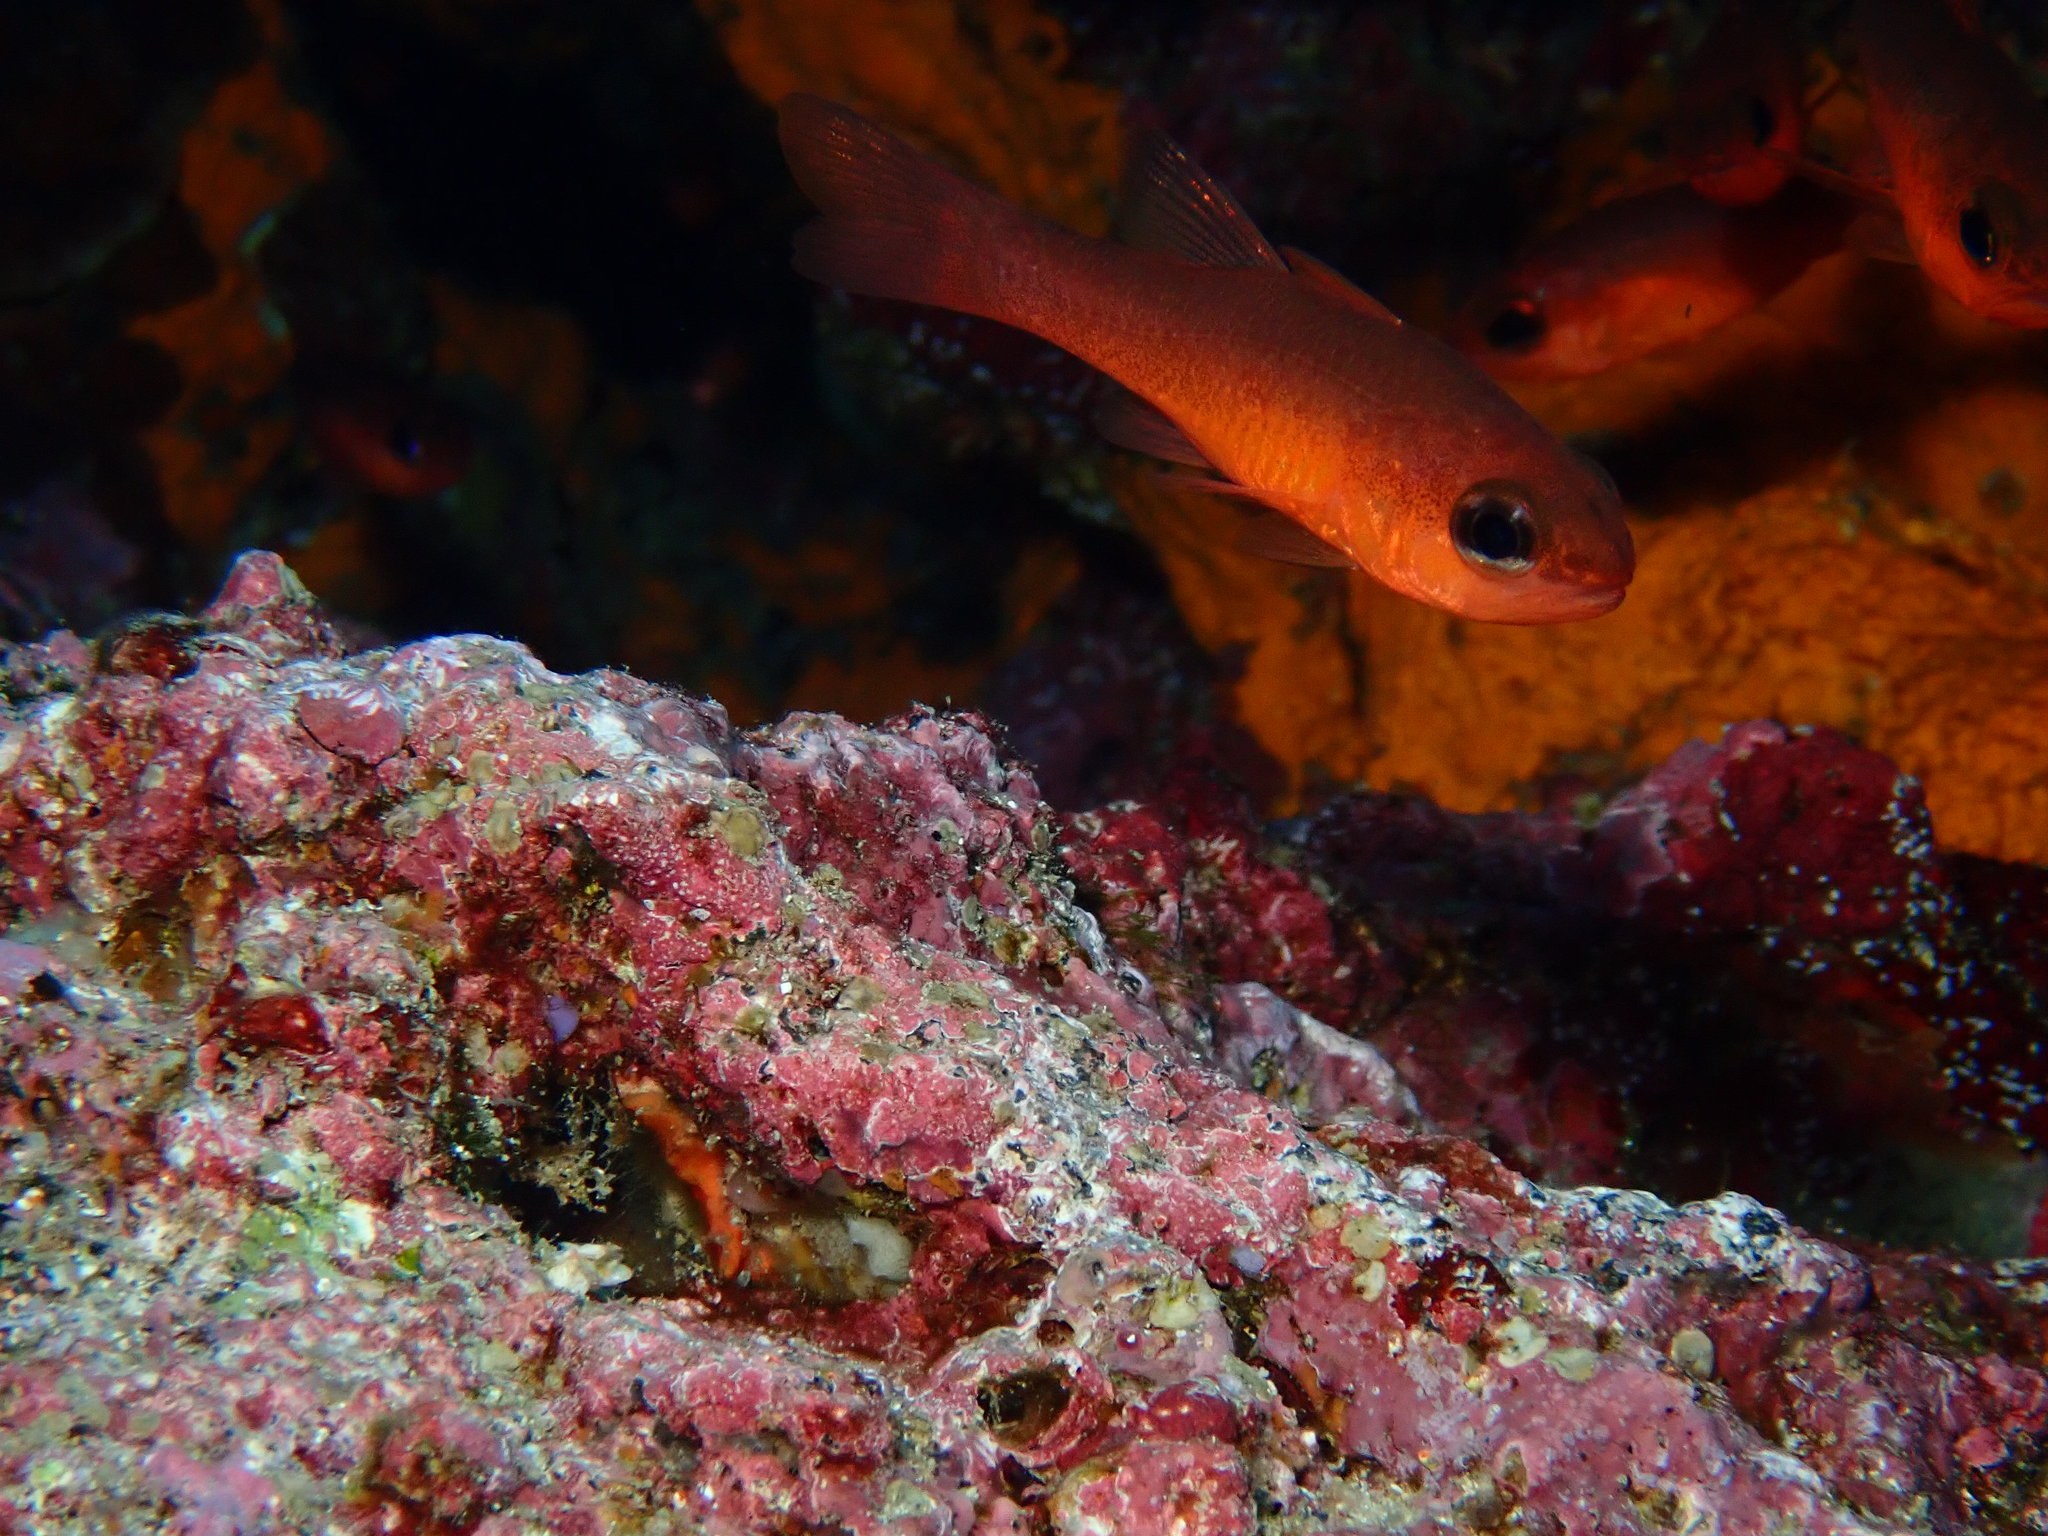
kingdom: Animalia
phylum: Chordata
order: Perciformes
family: Apogonidae
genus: Apogon
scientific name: Apogon atradorsatus
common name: Blacktip cardinalfish
